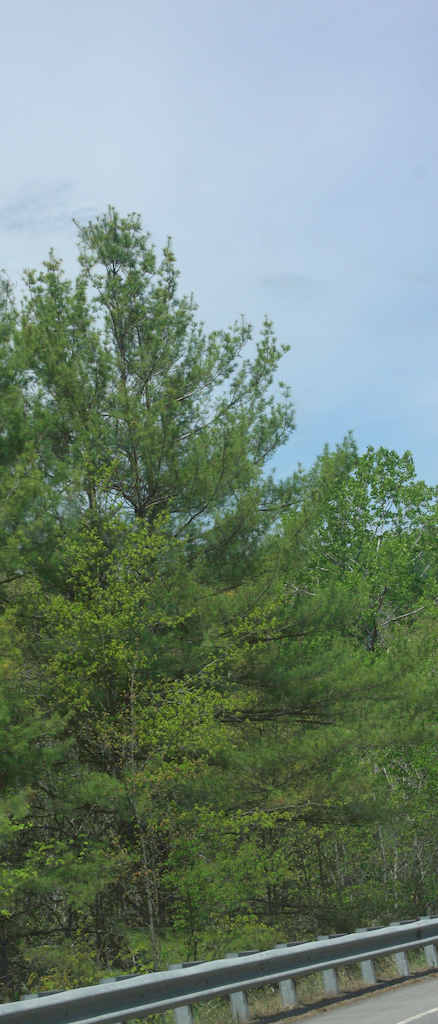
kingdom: Plantae
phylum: Tracheophyta
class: Pinopsida
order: Pinales
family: Pinaceae
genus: Pinus
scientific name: Pinus strobus
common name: Weymouth pine
